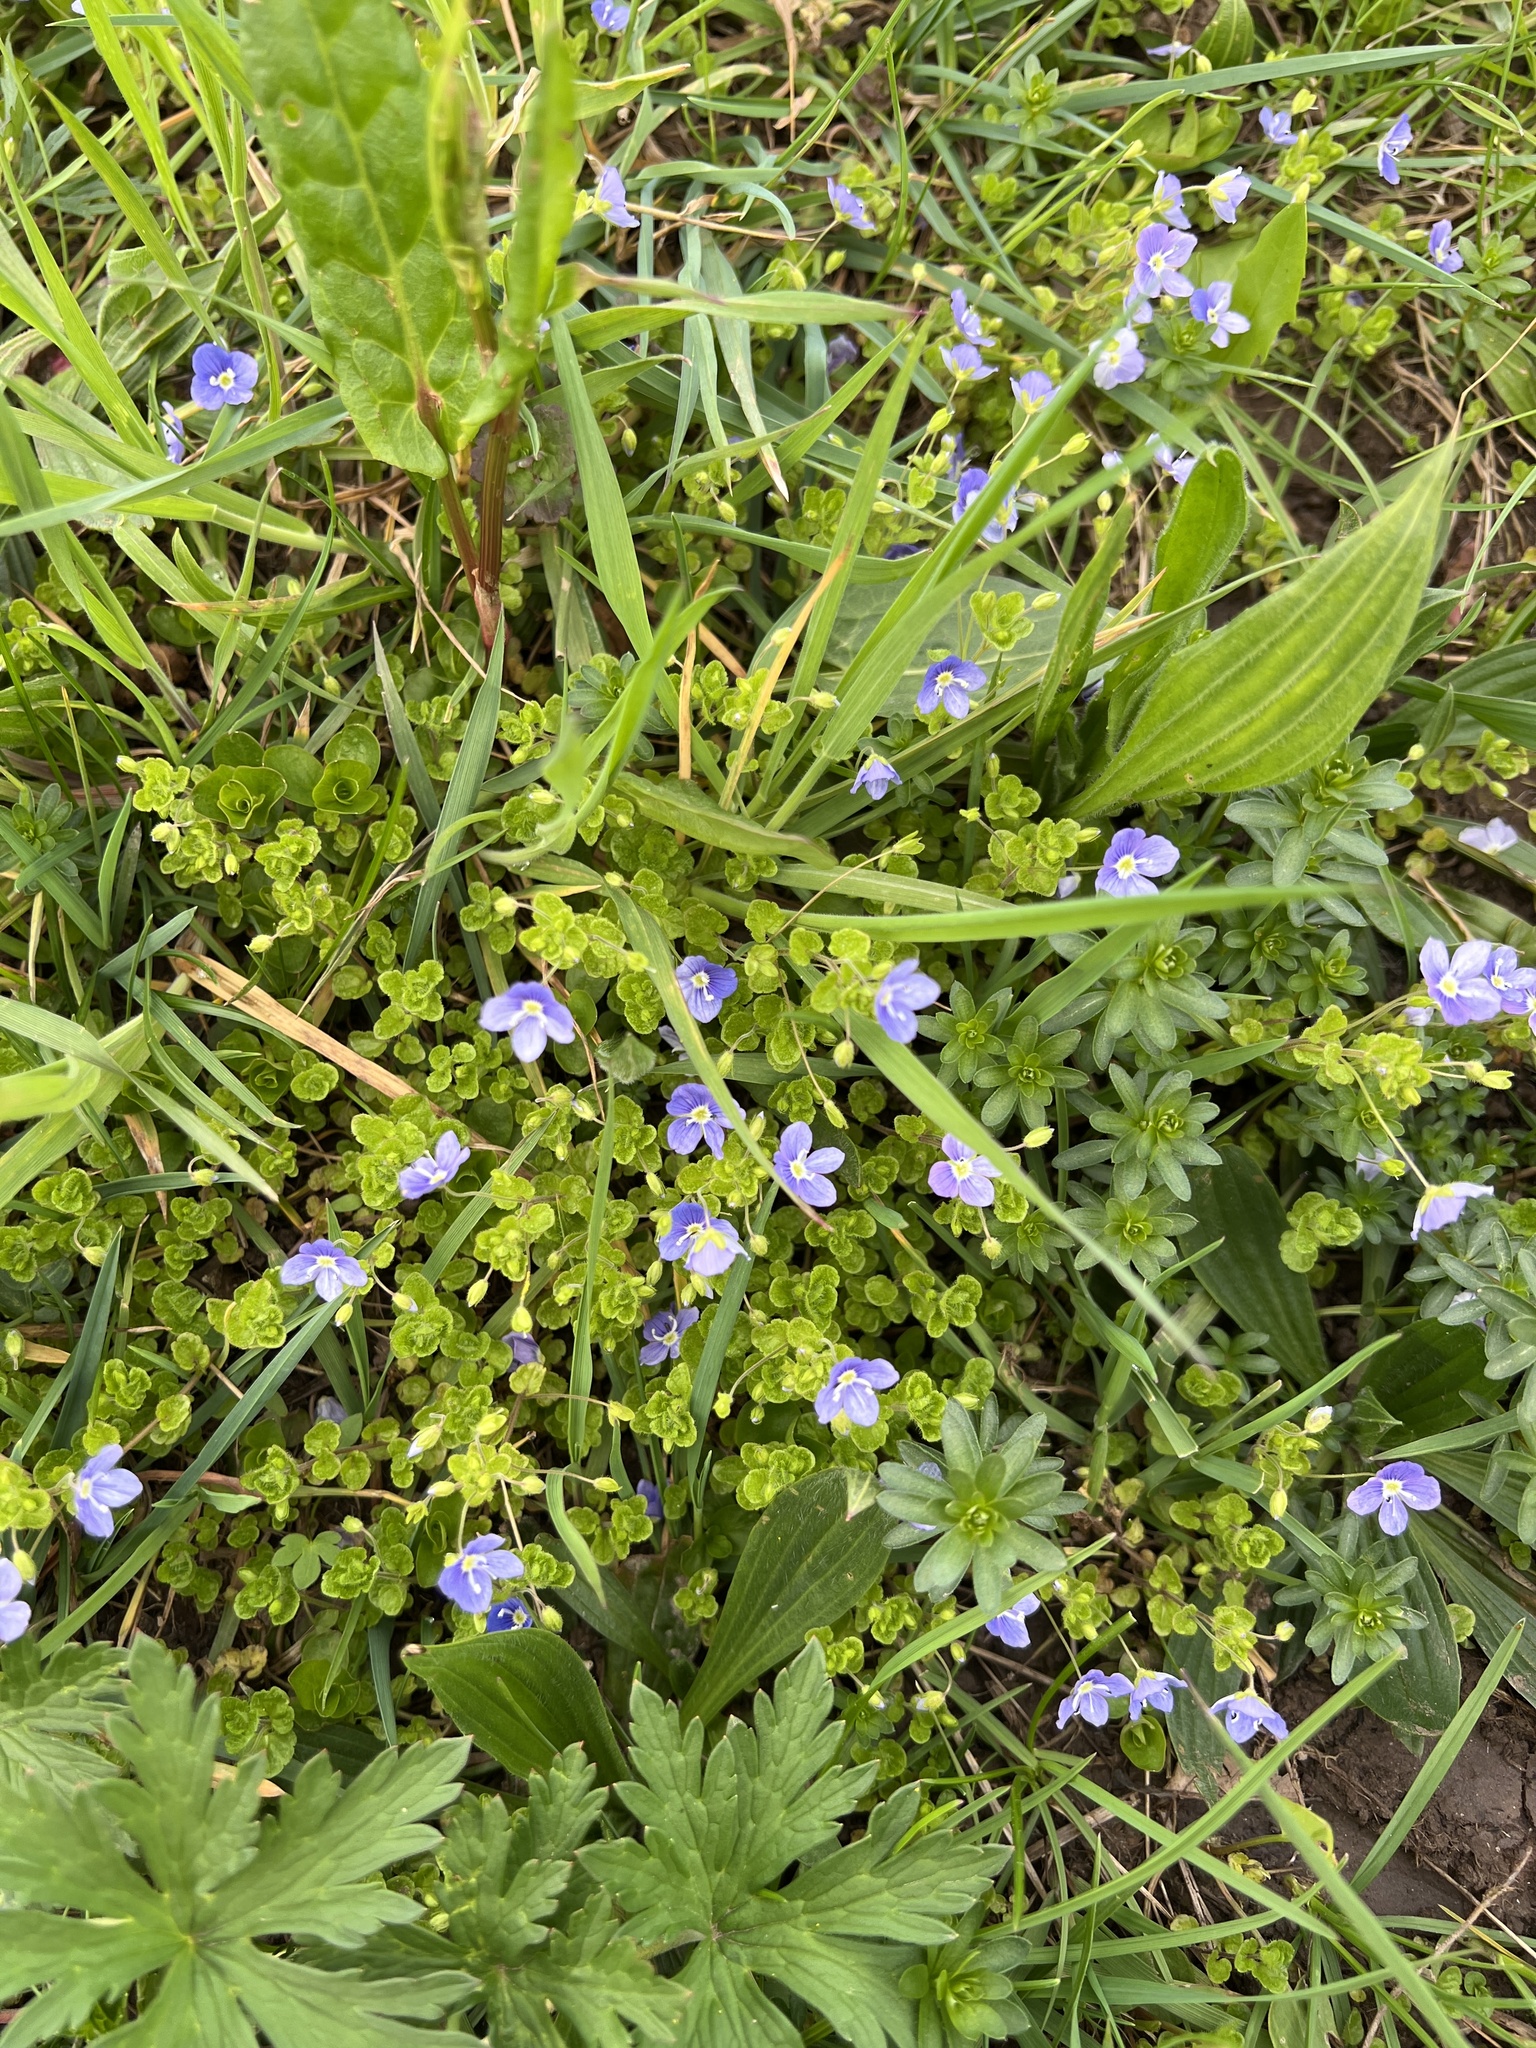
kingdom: Plantae
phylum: Tracheophyta
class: Magnoliopsida
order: Lamiales
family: Plantaginaceae
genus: Veronica
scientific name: Veronica filiformis
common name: Slender speedwell
